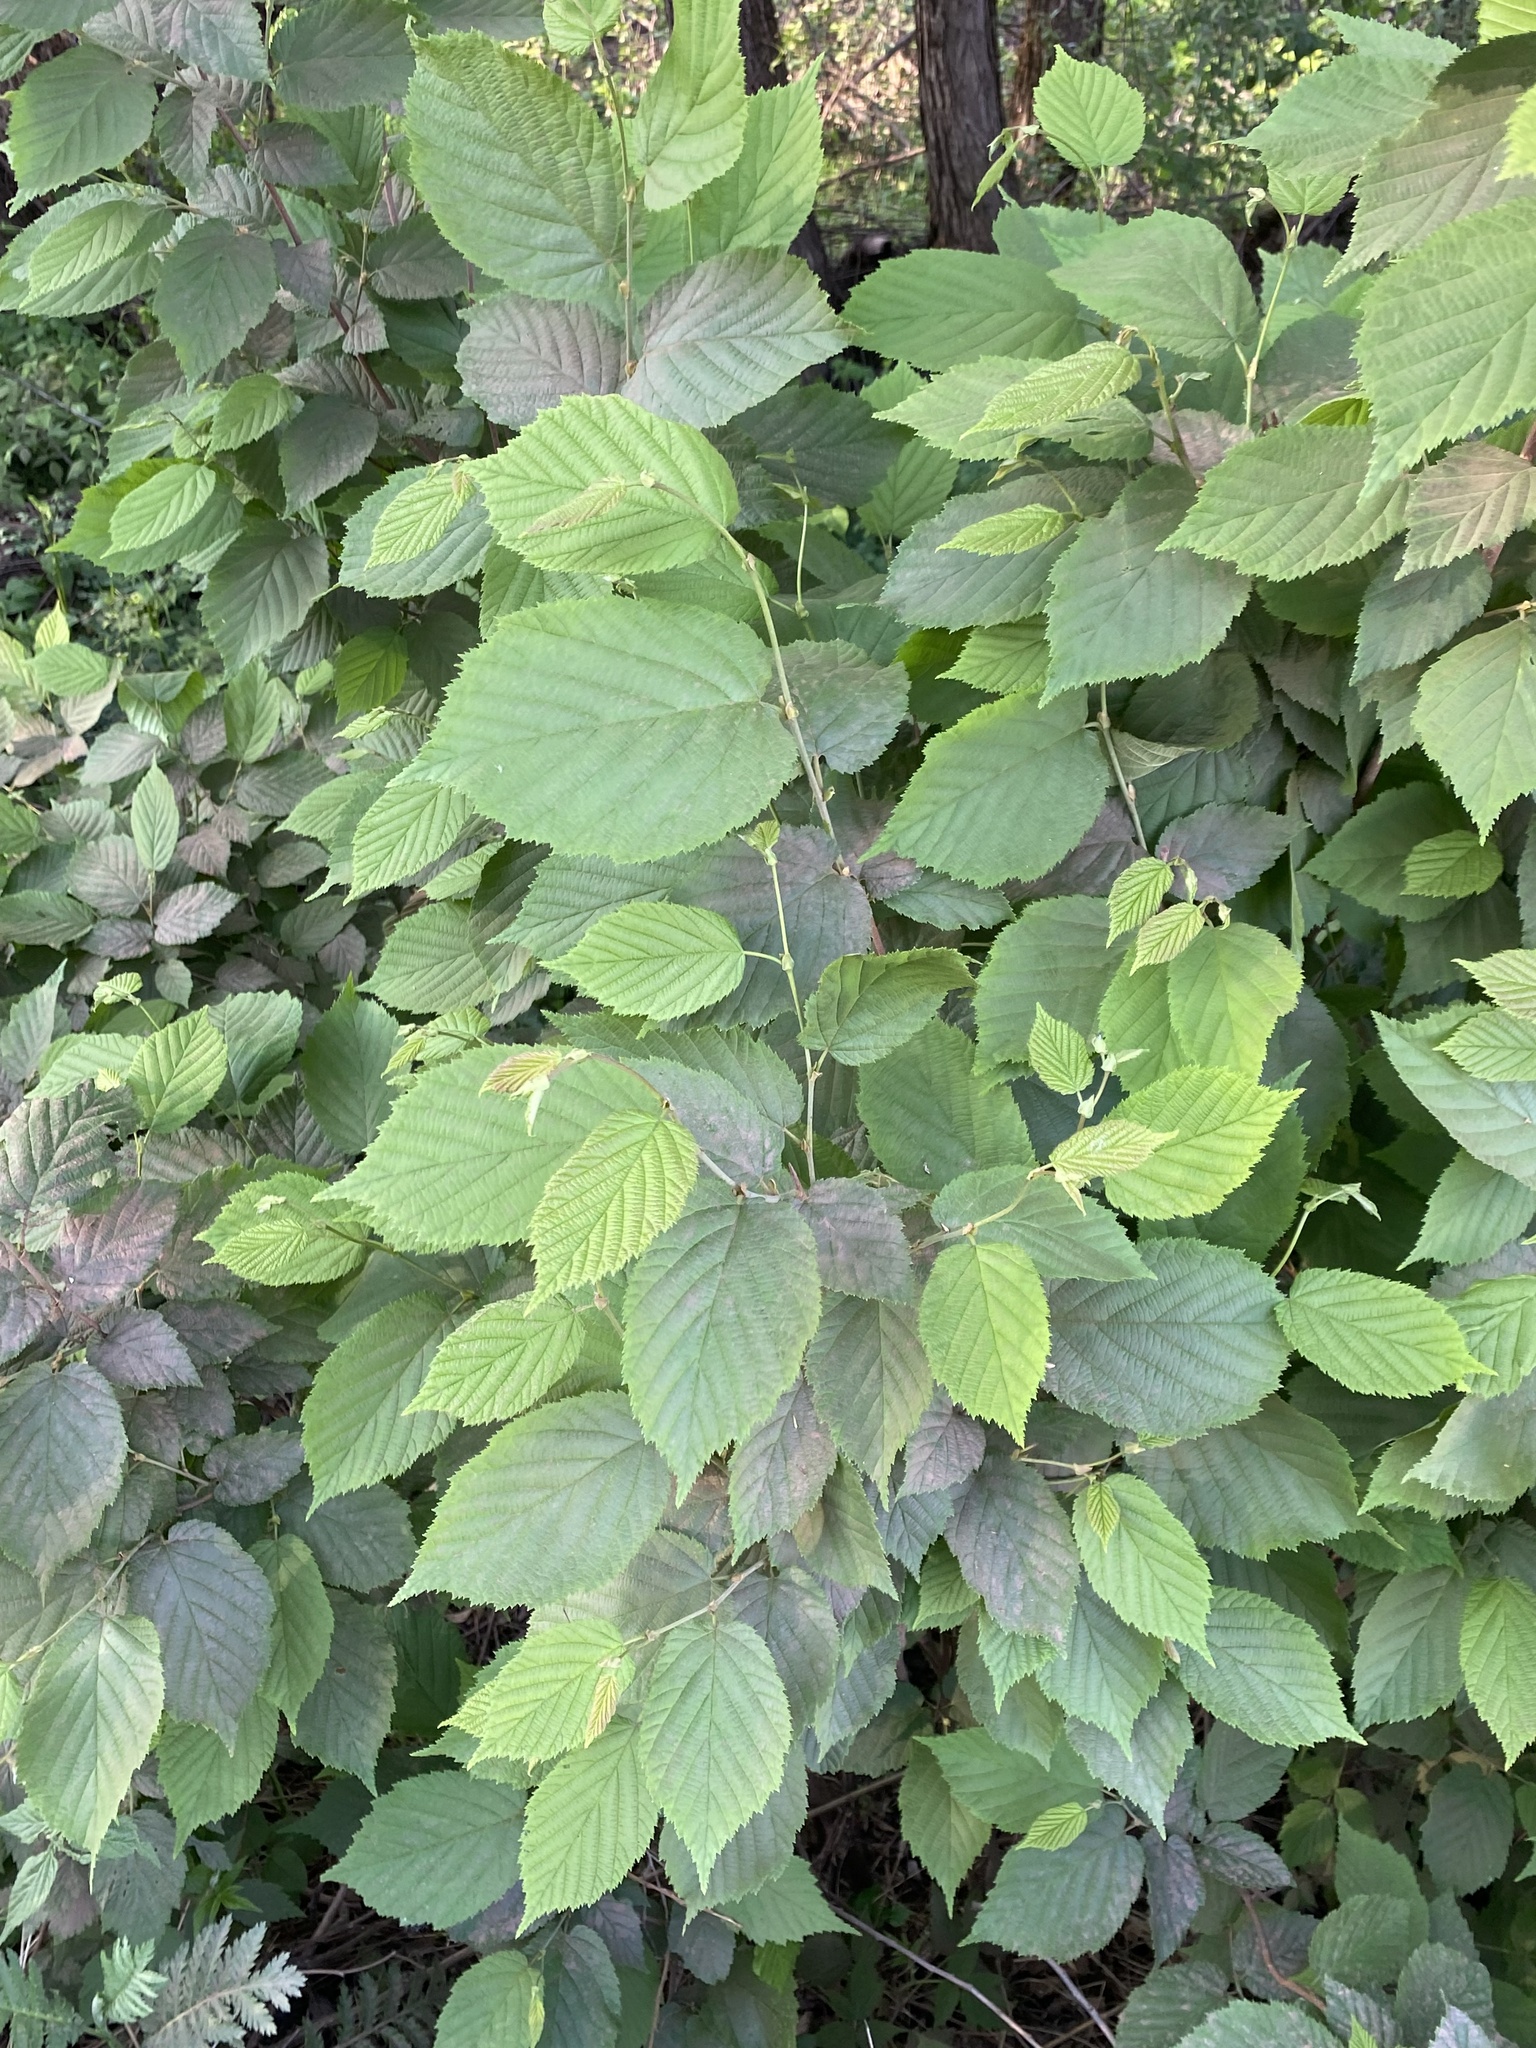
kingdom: Plantae
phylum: Tracheophyta
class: Magnoliopsida
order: Fagales
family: Betulaceae
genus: Corylus
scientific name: Corylus cornuta
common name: Beaked hazel
